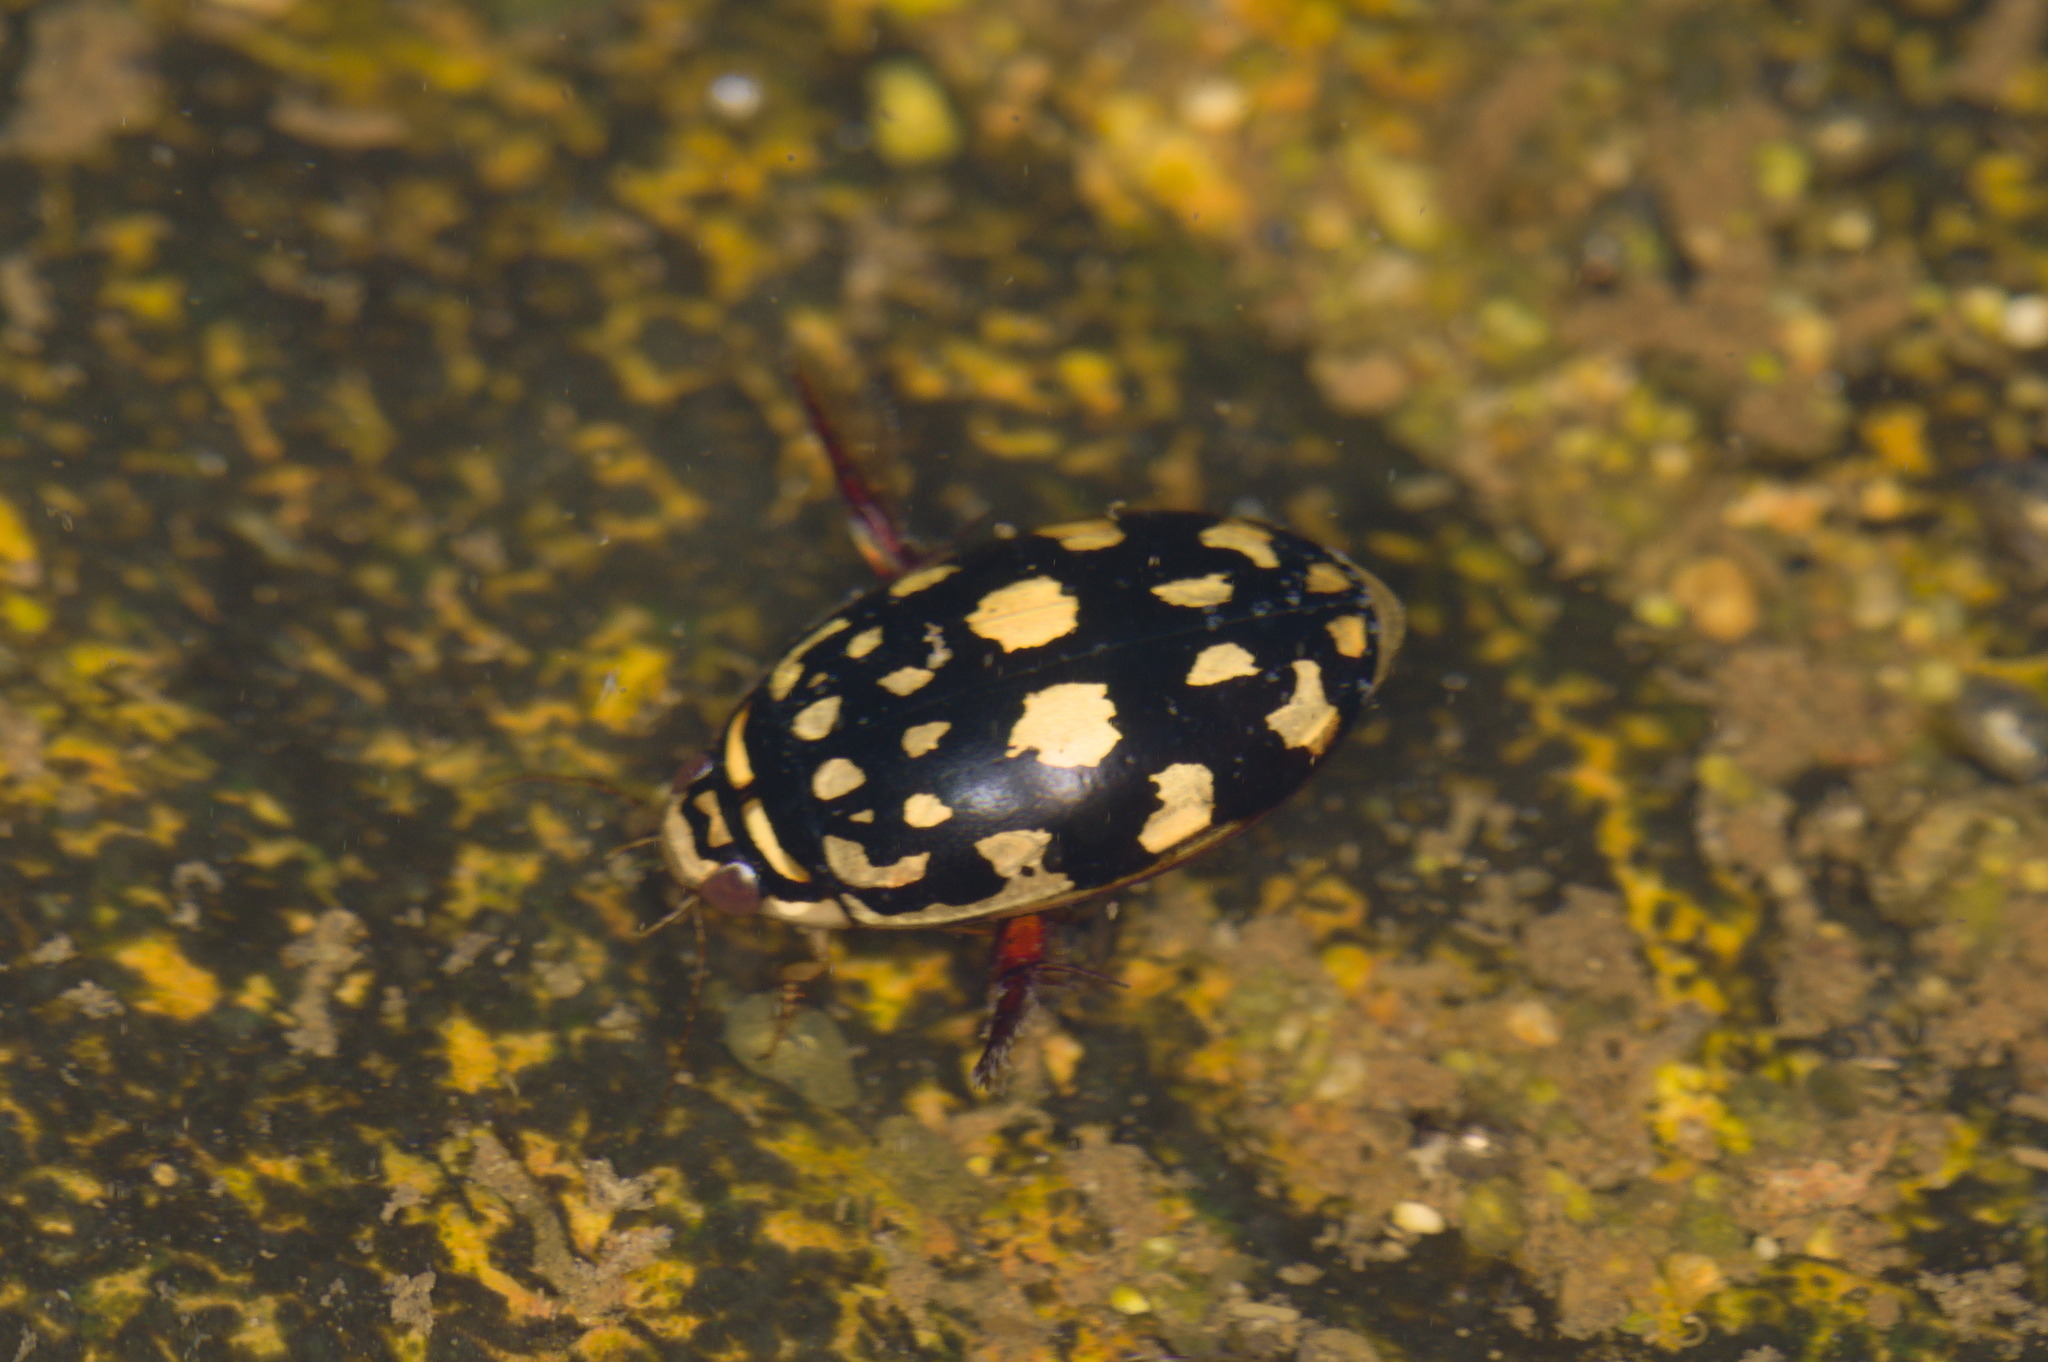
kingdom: Animalia
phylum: Arthropoda
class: Insecta
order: Coleoptera
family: Dytiscidae
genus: Thermonectus
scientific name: Thermonectus marmoratus
